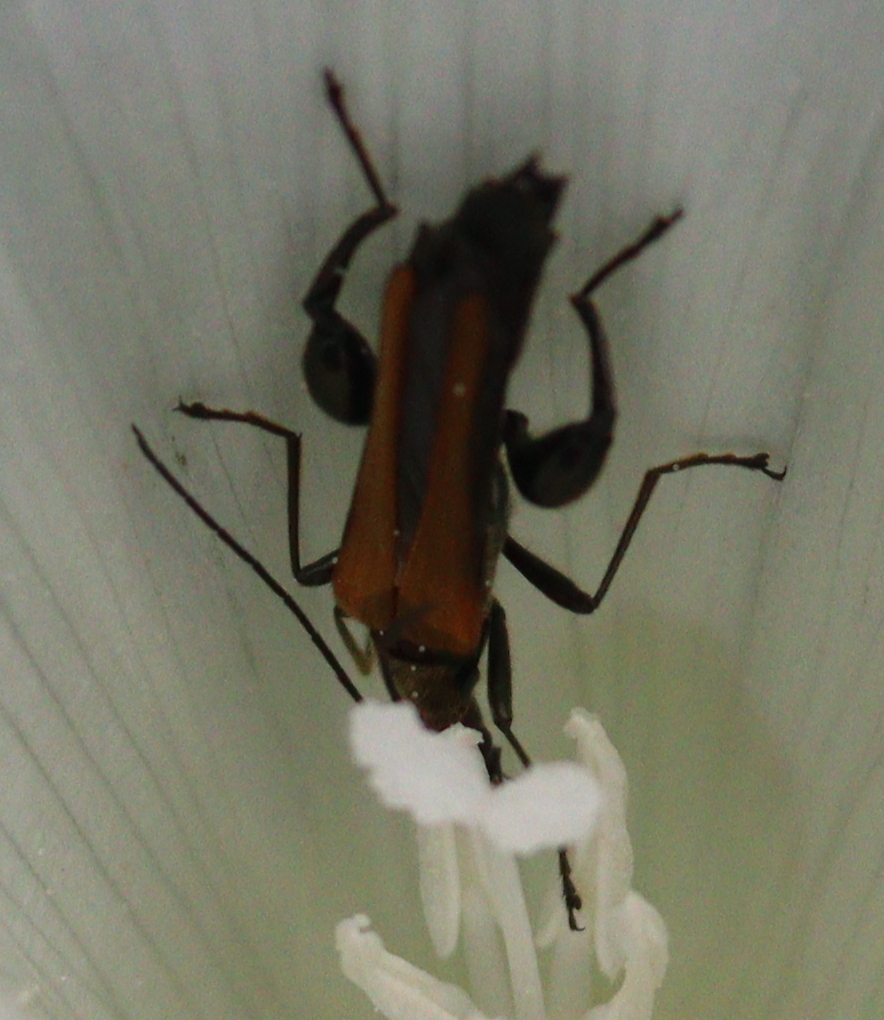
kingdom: Animalia
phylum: Arthropoda
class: Insecta
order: Coleoptera
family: Oedemeridae
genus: Oedemera
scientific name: Oedemera femorata
